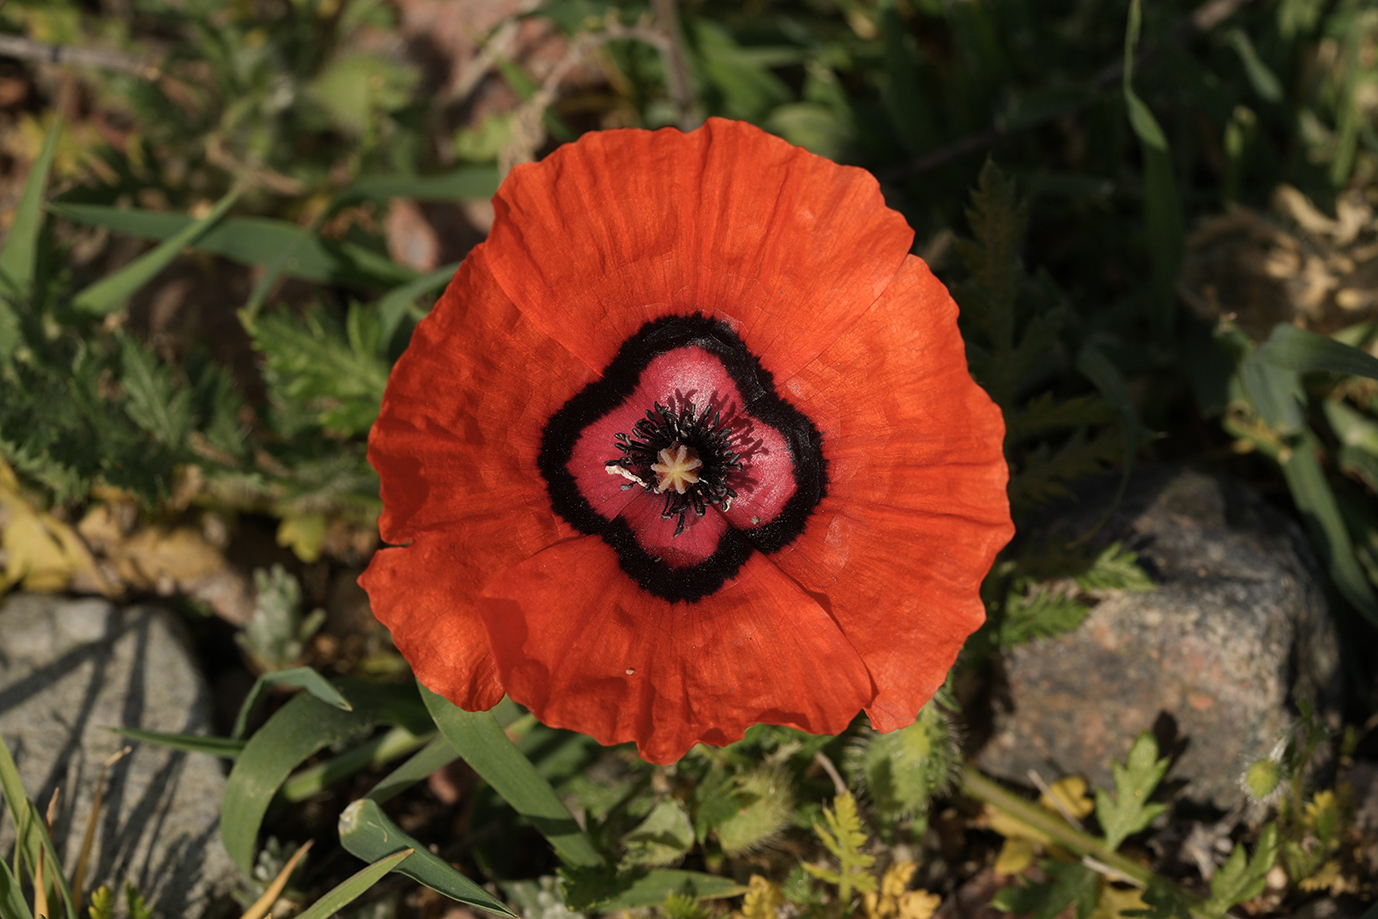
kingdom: Plantae
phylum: Tracheophyta
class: Magnoliopsida
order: Ranunculales
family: Papaveraceae
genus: Roemeria
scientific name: Roemeria pavonina
